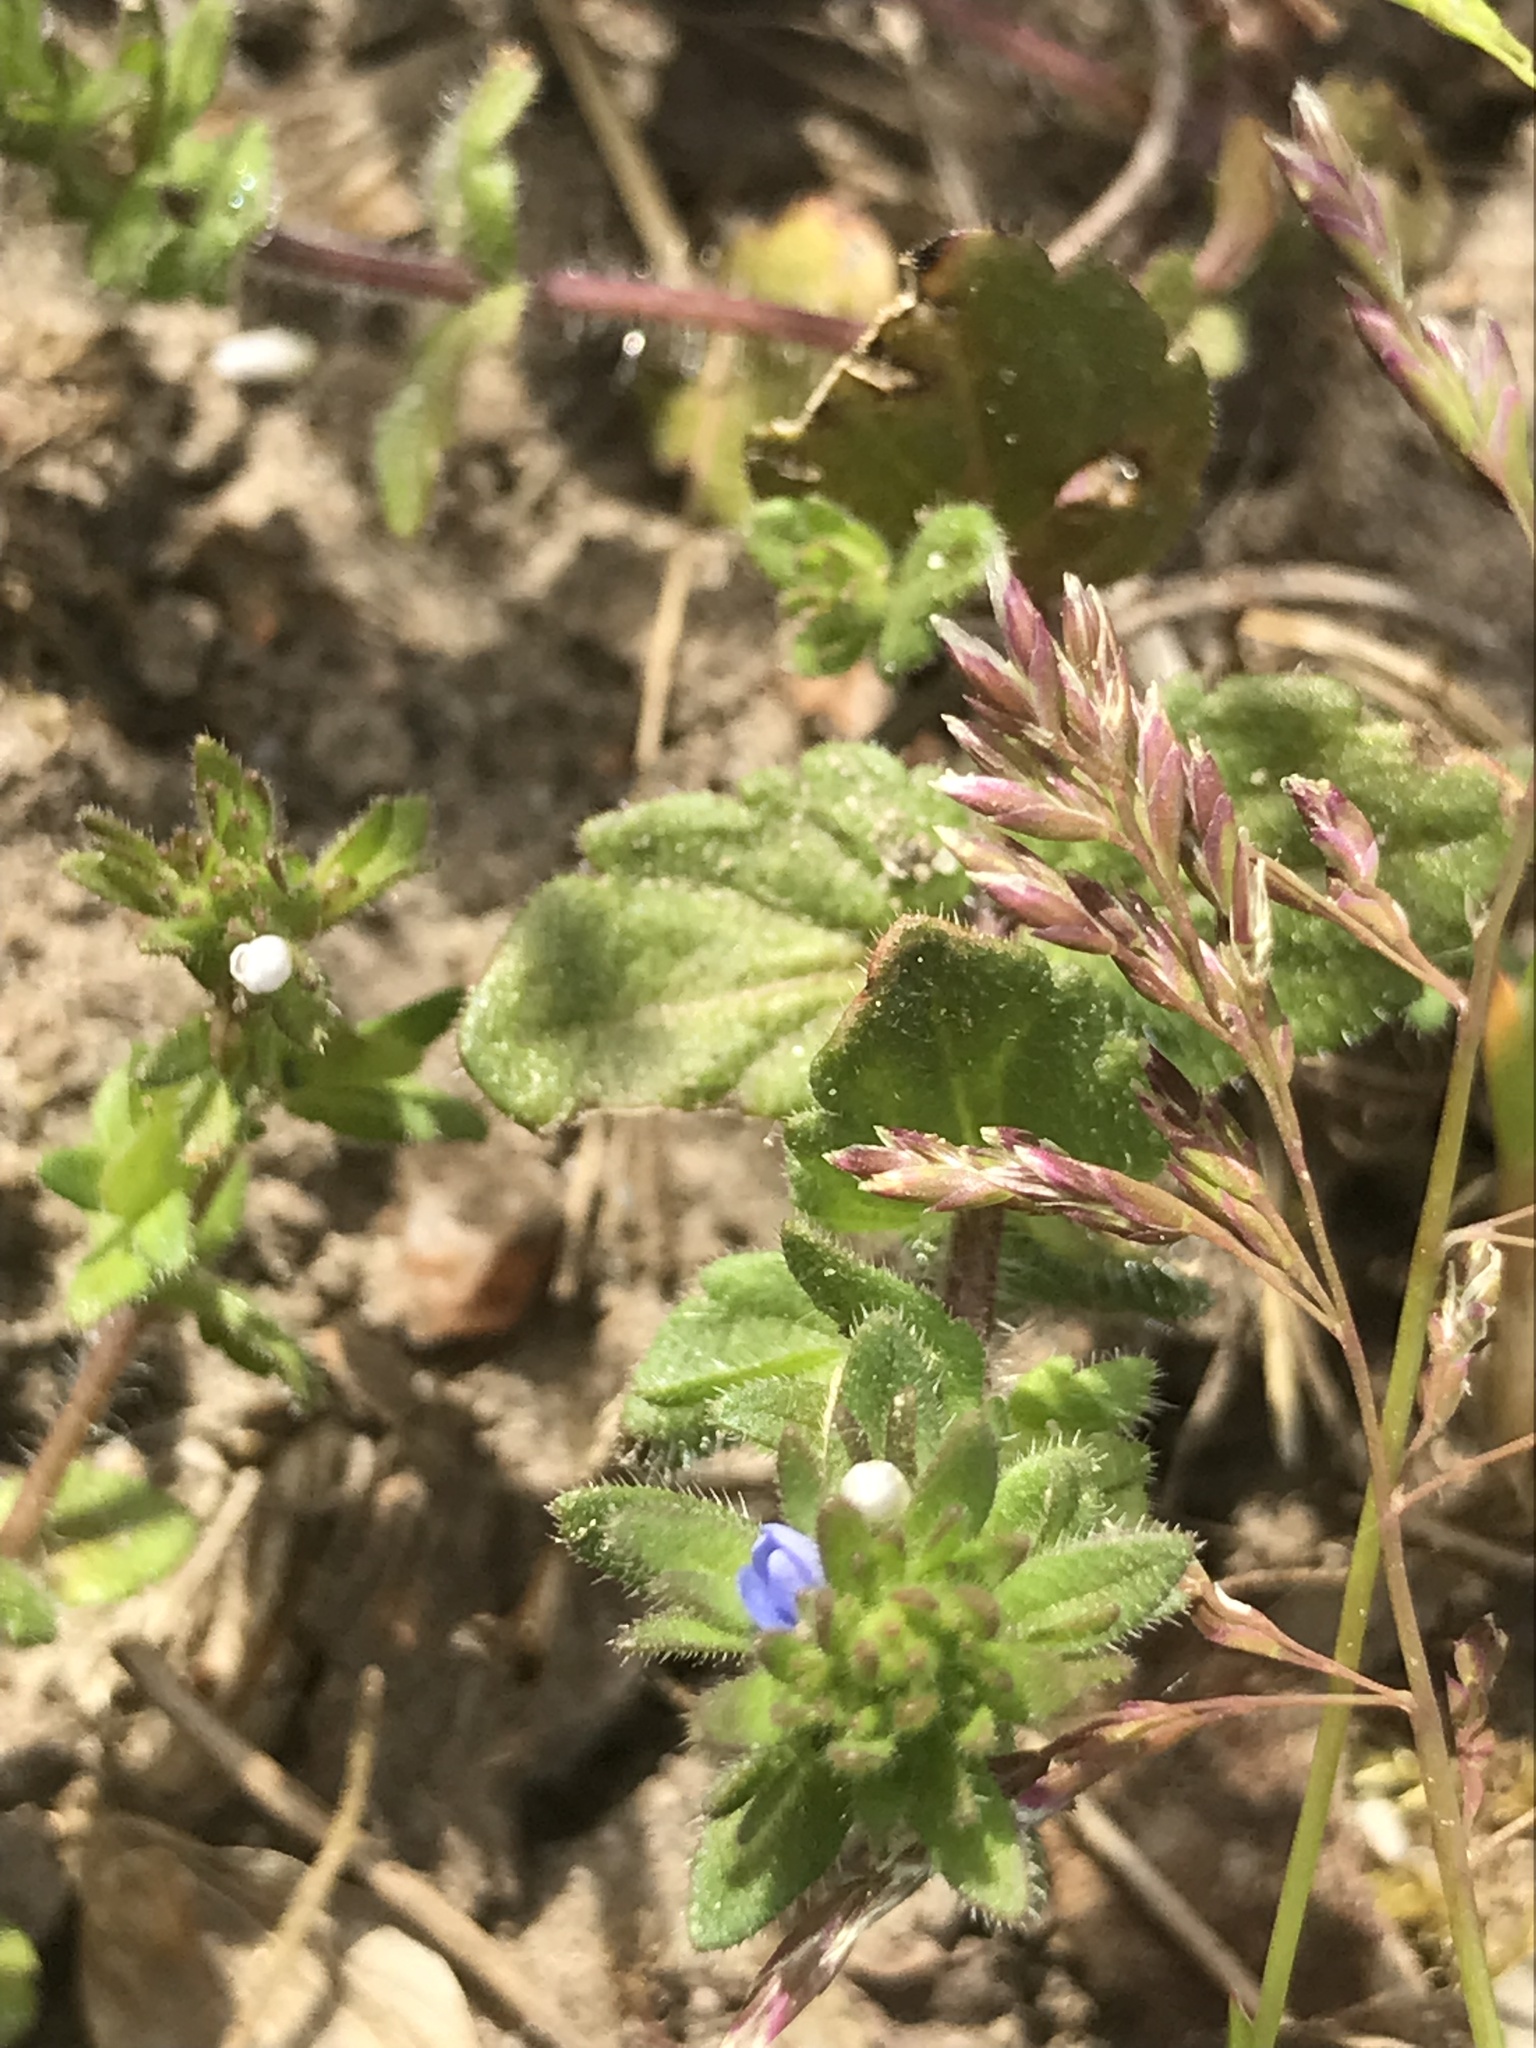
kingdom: Plantae
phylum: Tracheophyta
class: Magnoliopsida
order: Lamiales
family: Plantaginaceae
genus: Veronica
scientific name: Veronica arvensis
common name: Corn speedwell
